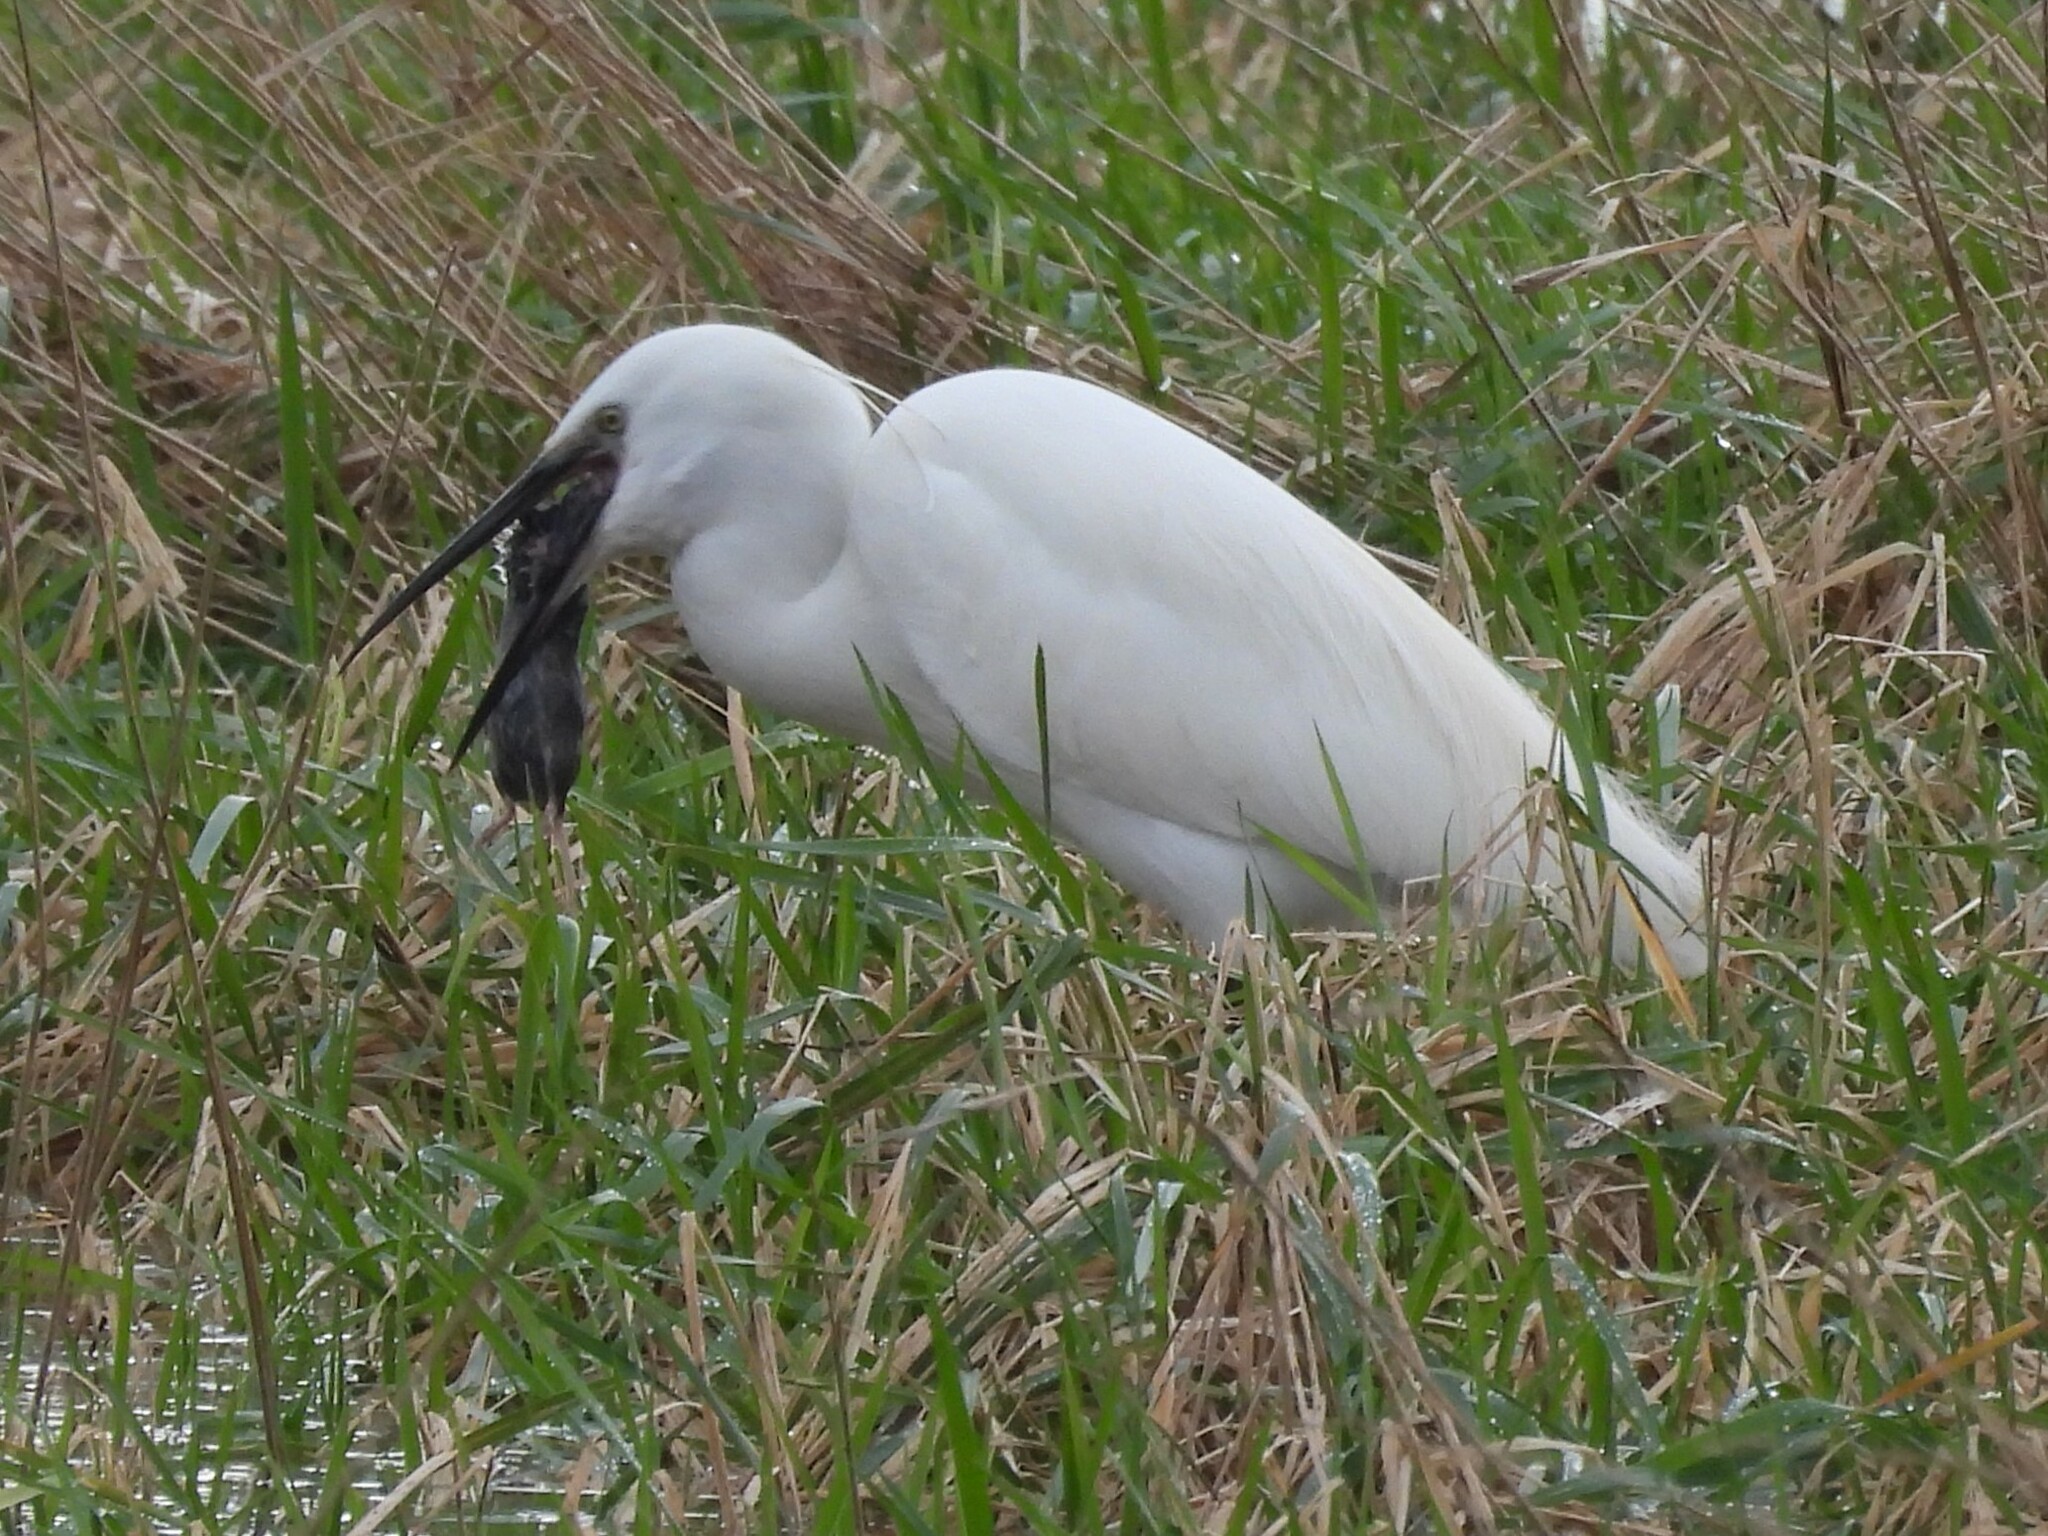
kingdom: Animalia
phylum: Chordata
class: Aves
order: Pelecaniformes
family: Ardeidae
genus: Egretta
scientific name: Egretta garzetta
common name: Little egret
